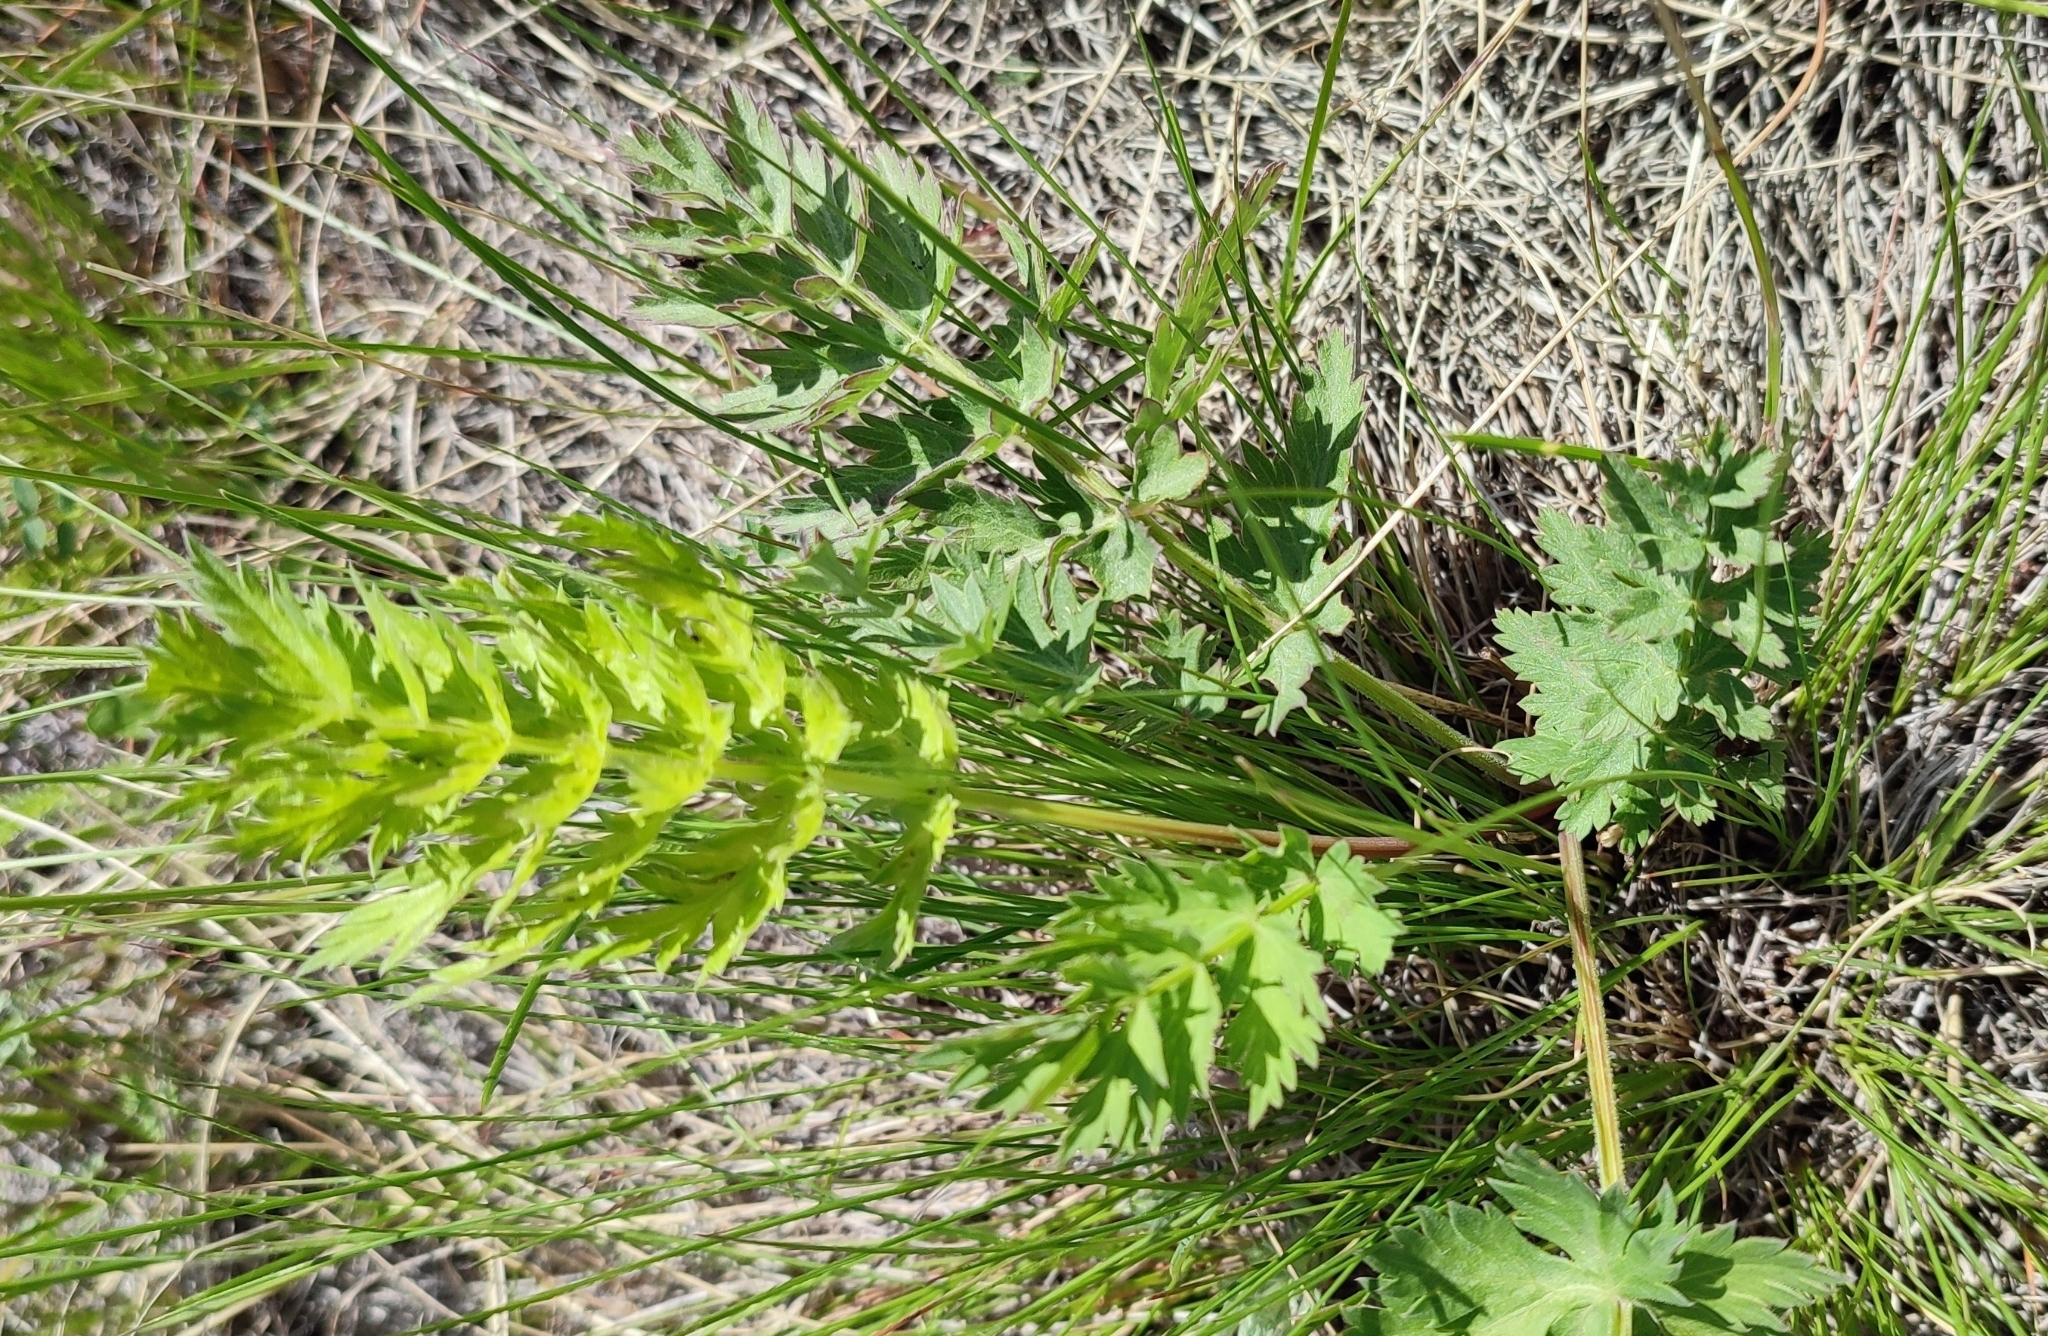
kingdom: Plantae
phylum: Tracheophyta
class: Magnoliopsida
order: Apiales
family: Apiaceae
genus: Seseli
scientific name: Seseli libanotis
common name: Mooncarrot
